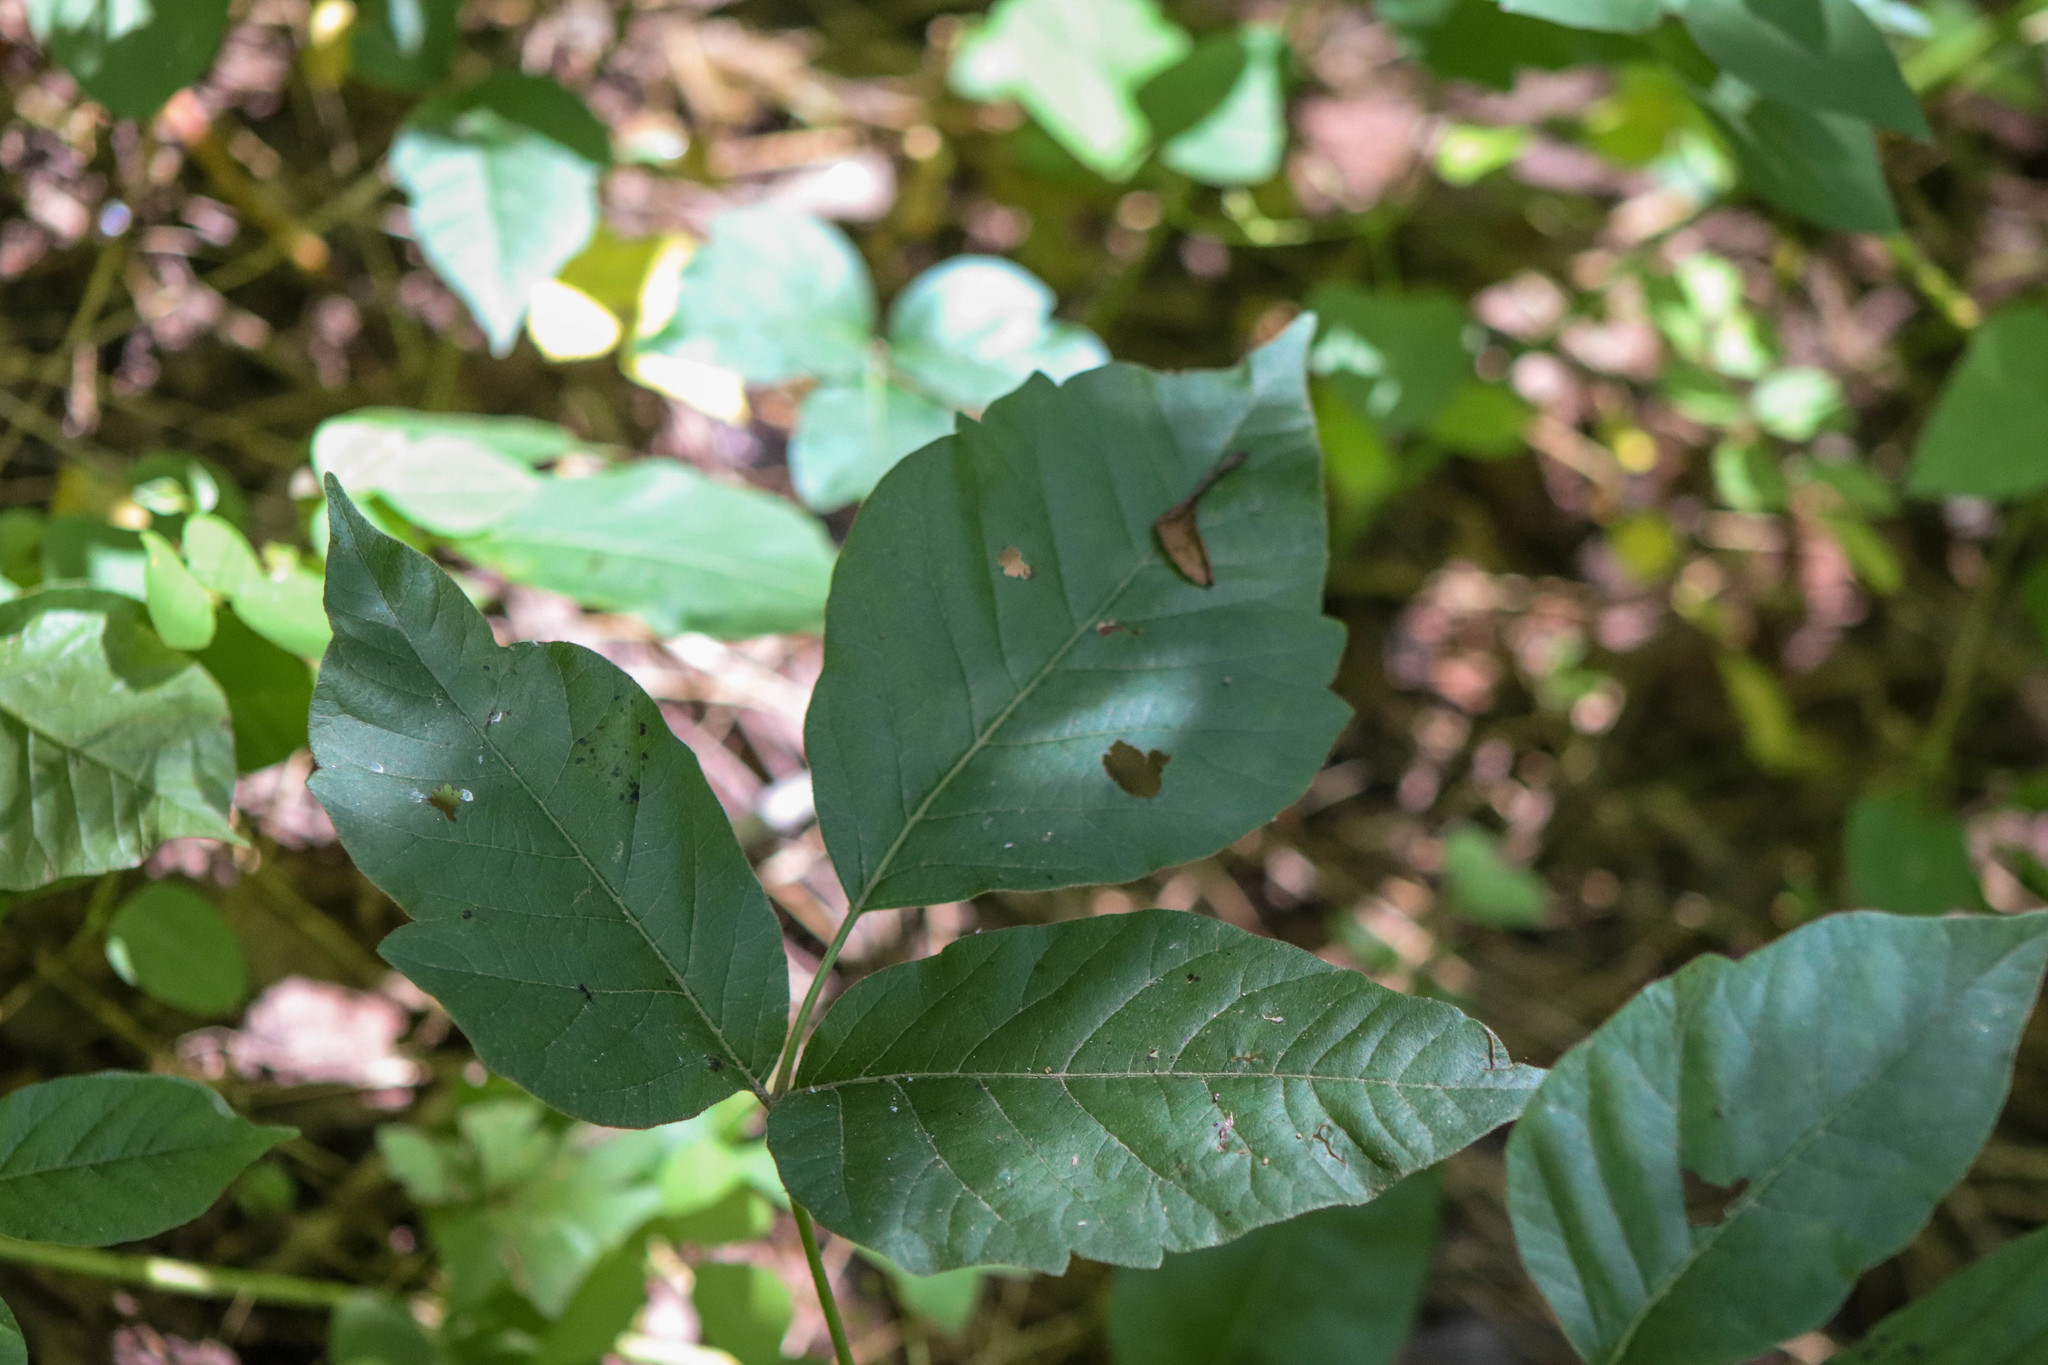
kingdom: Plantae
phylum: Tracheophyta
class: Magnoliopsida
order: Sapindales
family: Anacardiaceae
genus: Toxicodendron
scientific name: Toxicodendron radicans
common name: Poison ivy
